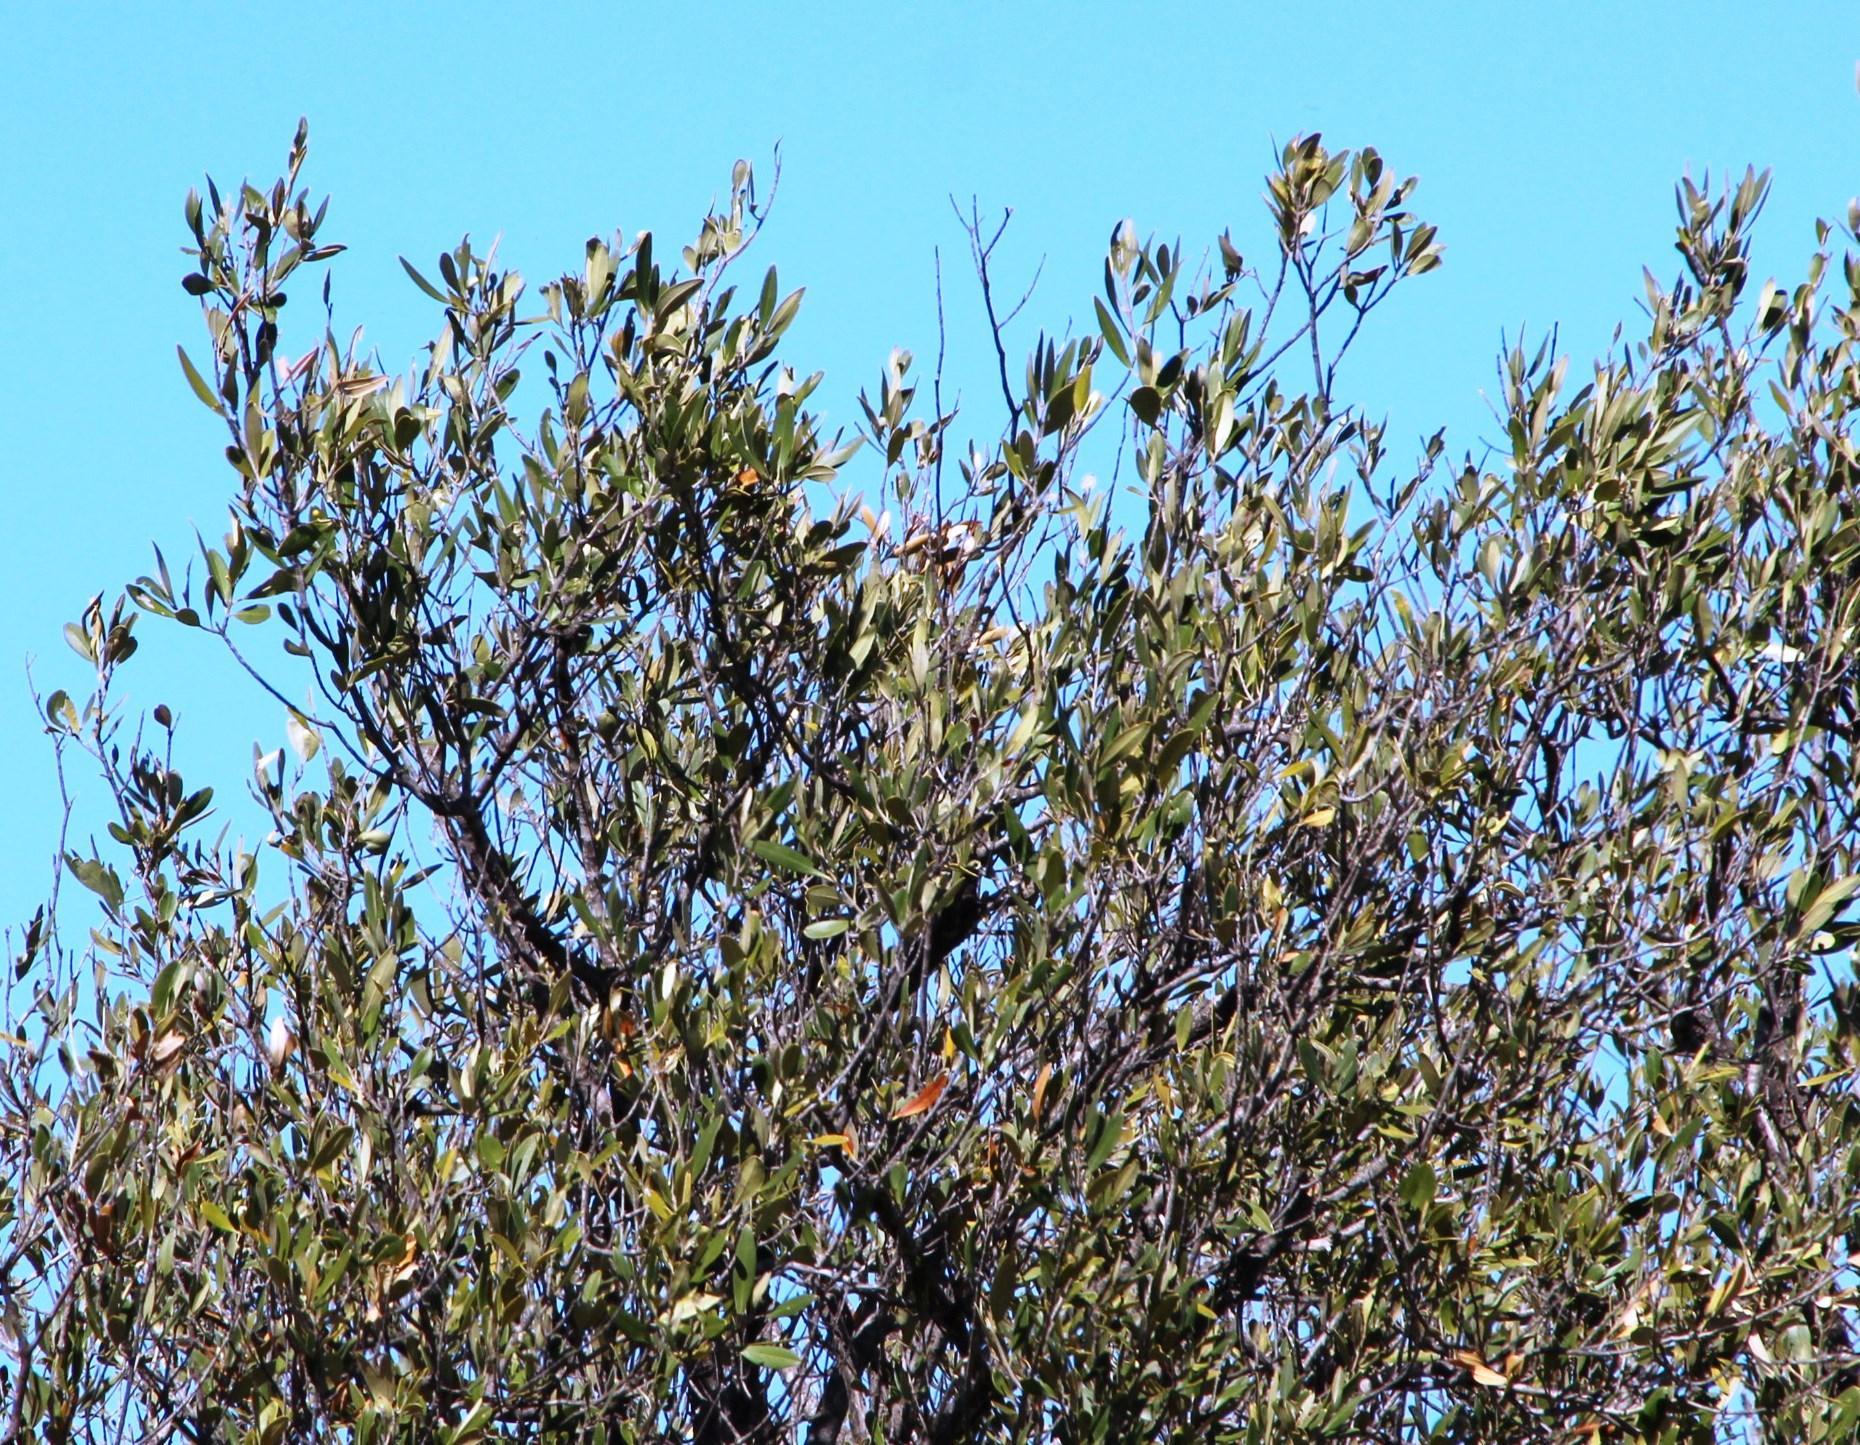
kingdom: Plantae
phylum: Tracheophyta
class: Magnoliopsida
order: Lamiales
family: Oleaceae
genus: Olea
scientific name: Olea europaea
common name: Olive
